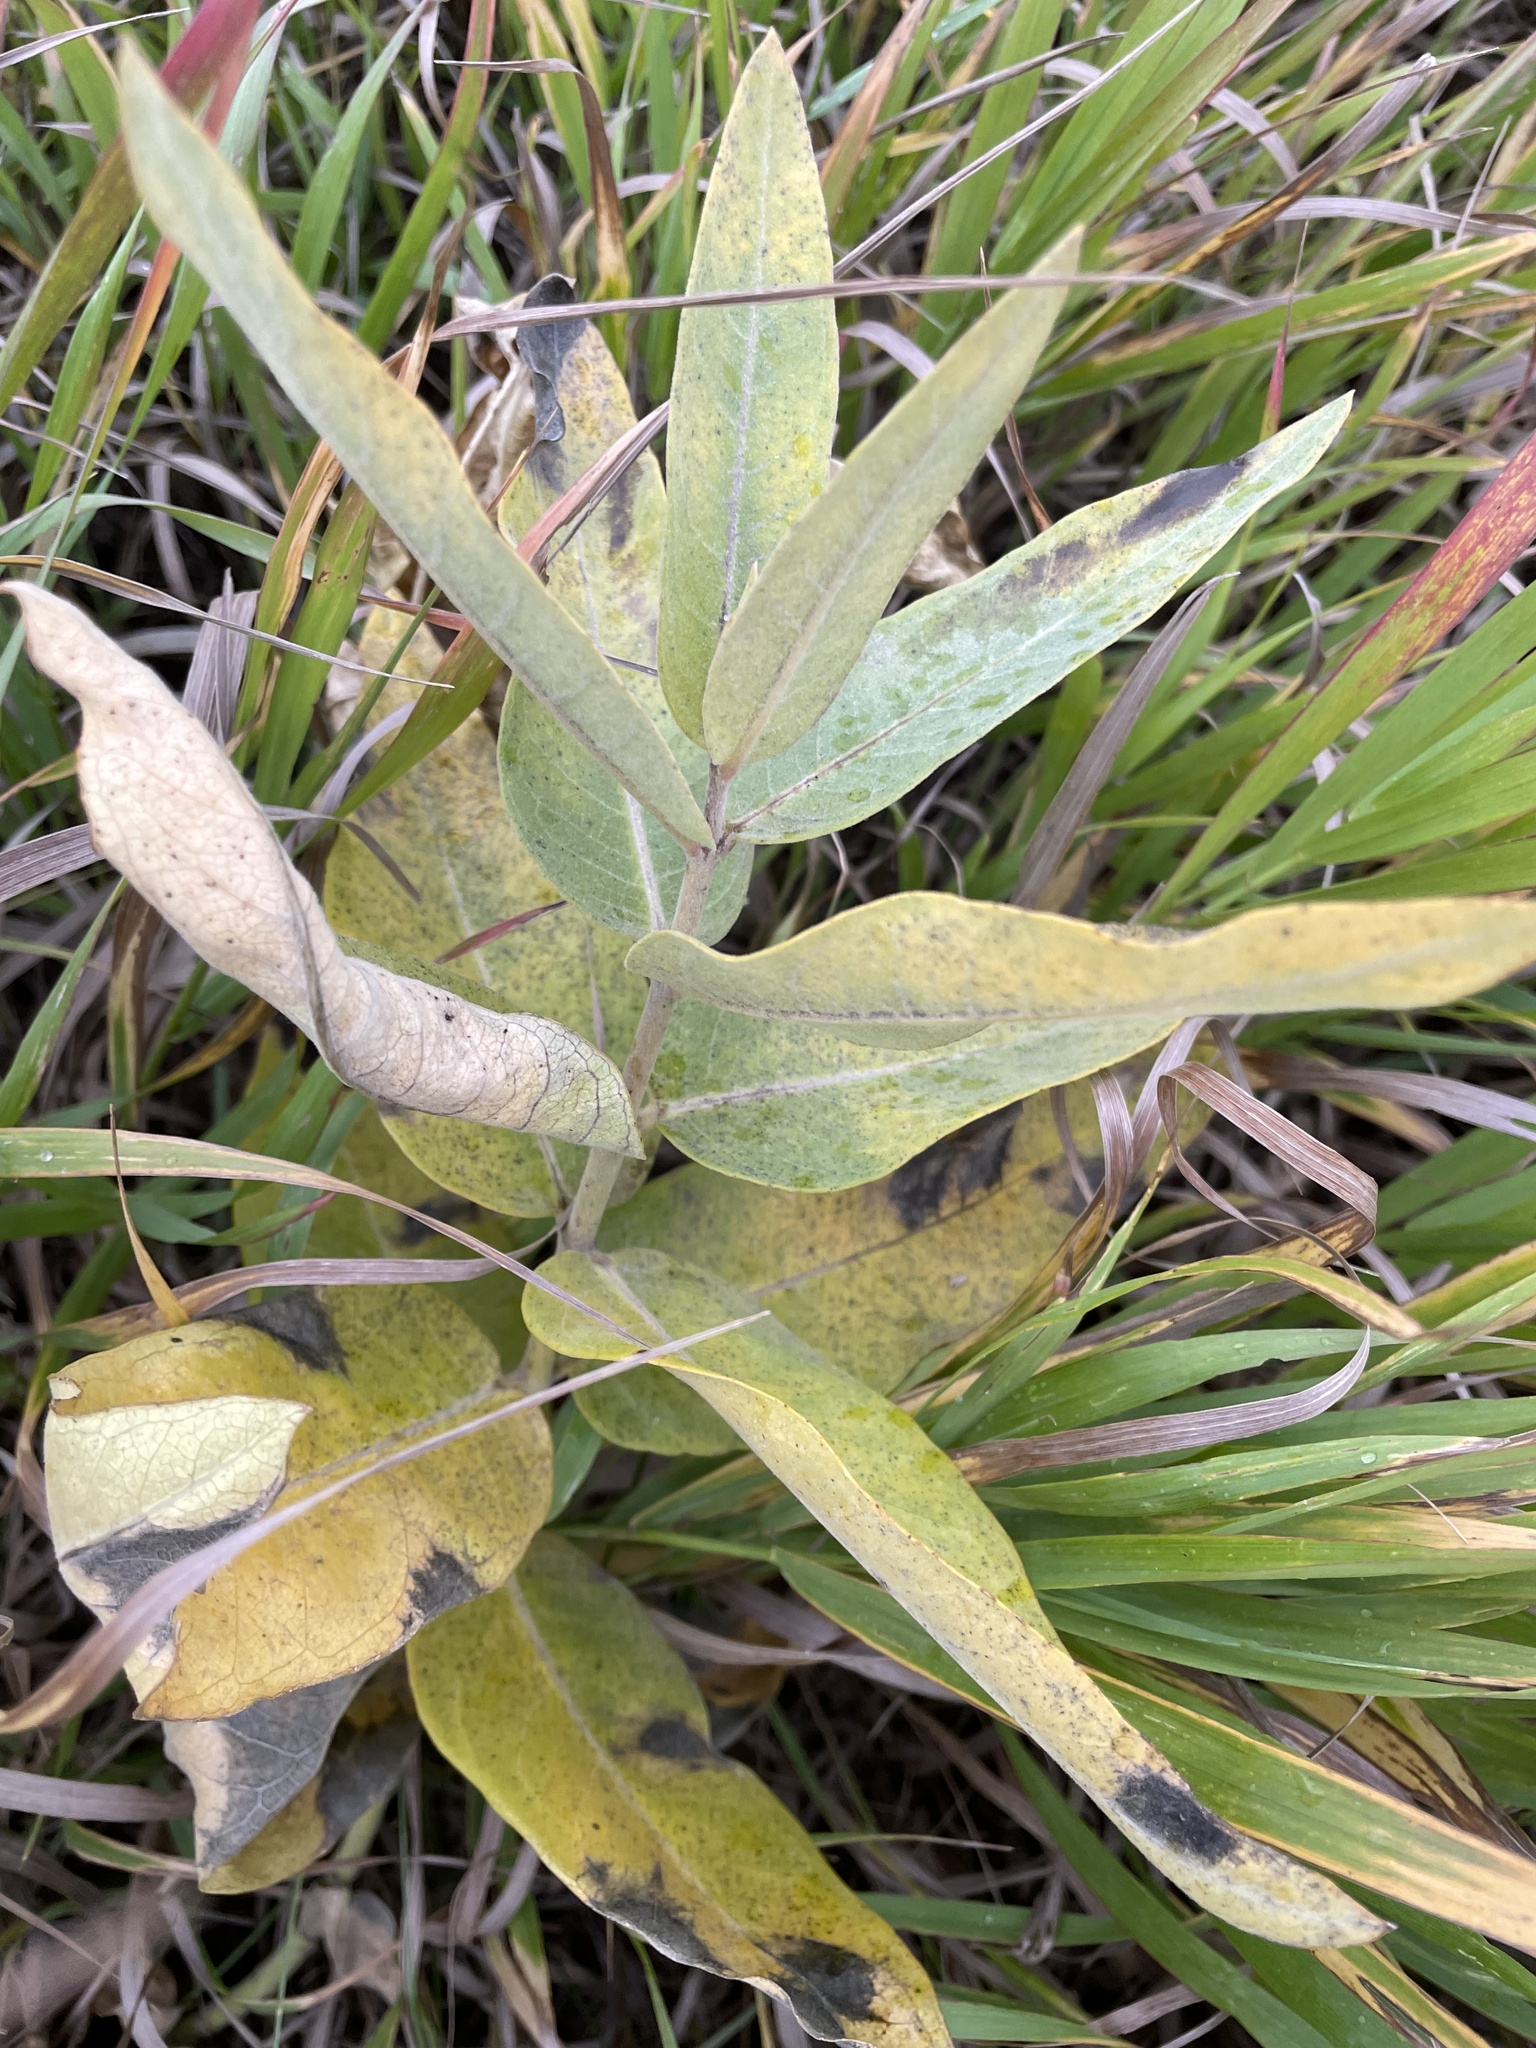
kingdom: Plantae
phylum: Tracheophyta
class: Magnoliopsida
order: Gentianales
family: Apocynaceae
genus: Asclepias
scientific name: Asclepias speciosa
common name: Showy milkweed
